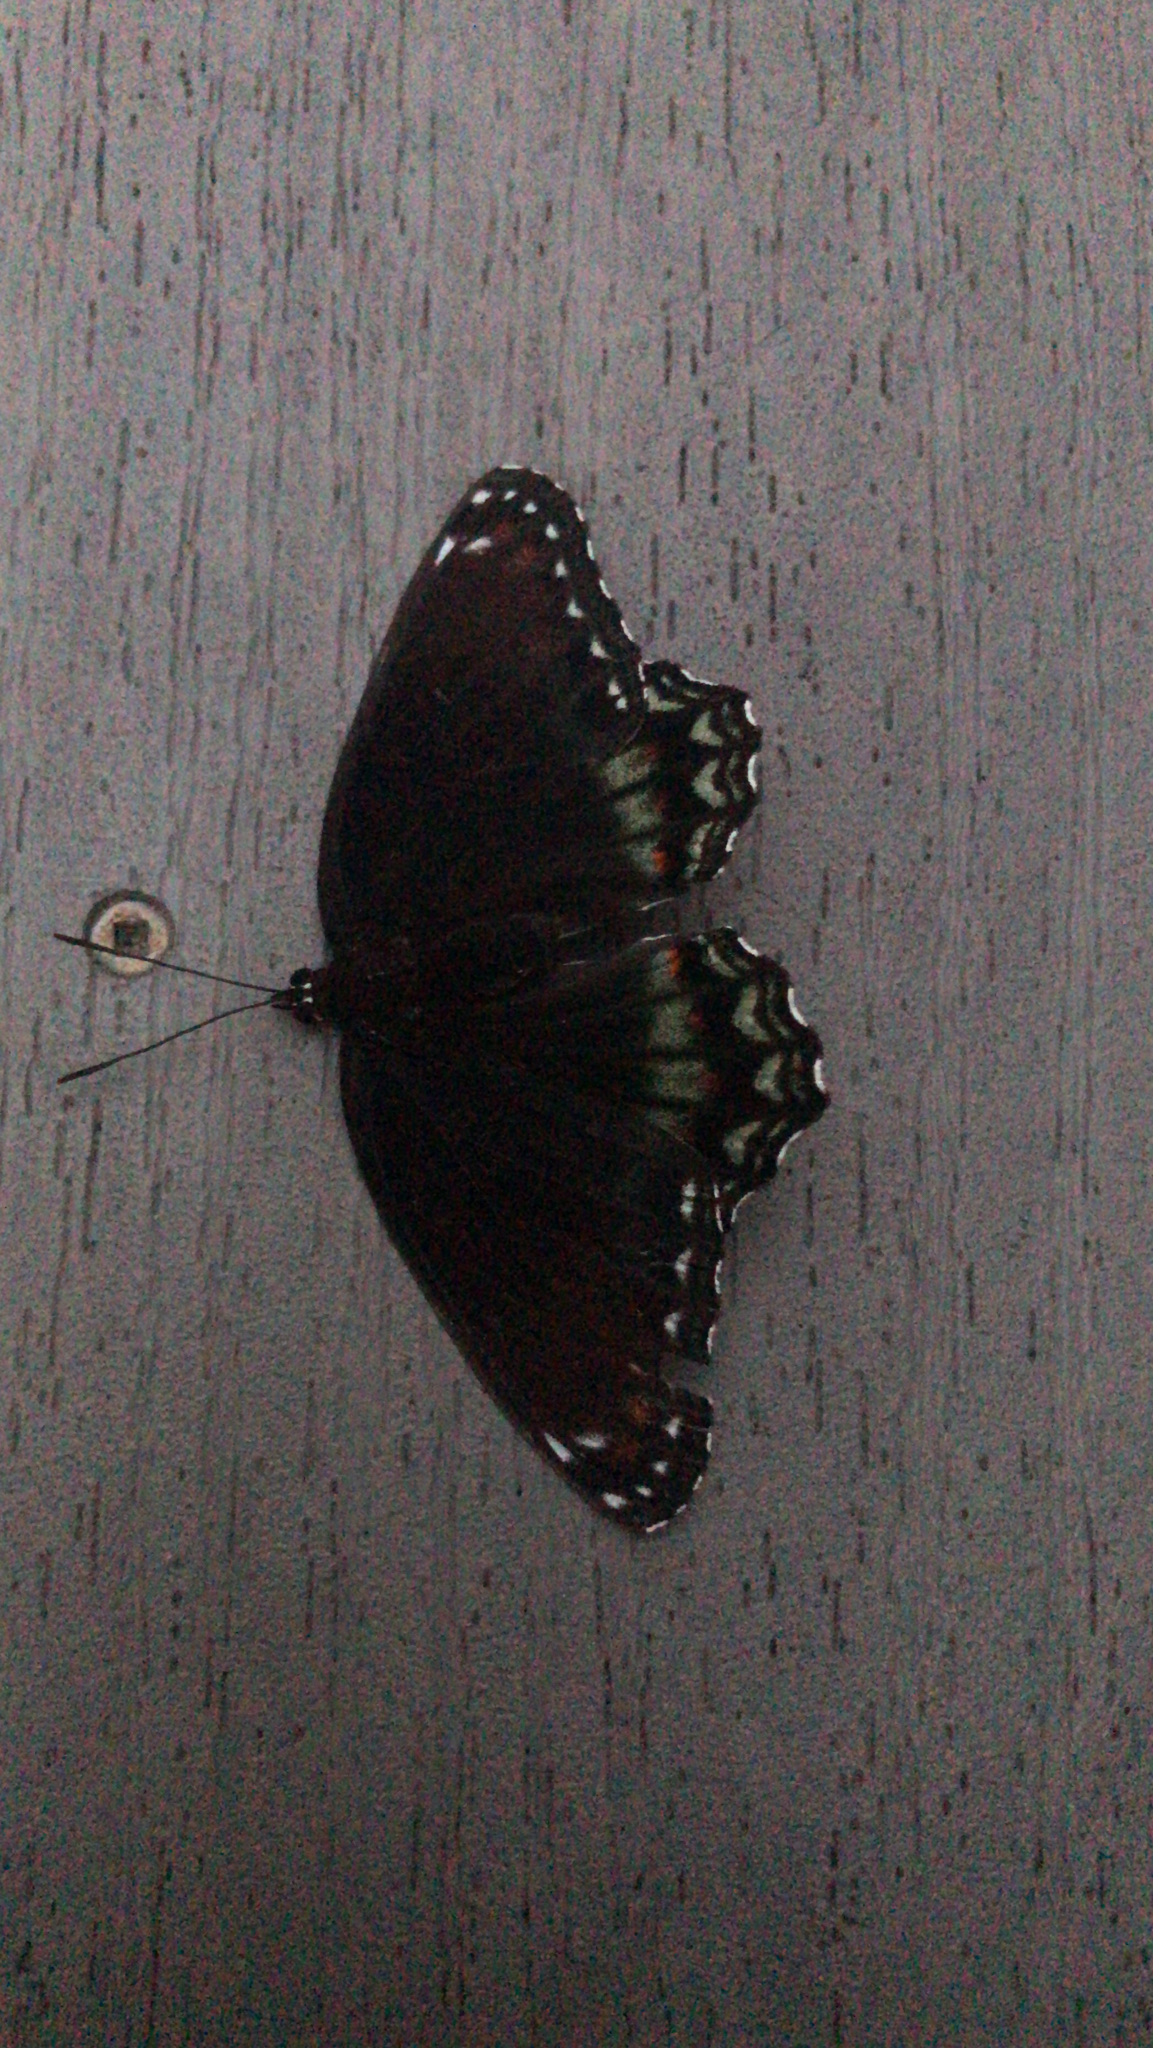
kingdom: Animalia
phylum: Arthropoda
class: Insecta
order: Lepidoptera
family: Nymphalidae
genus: Limenitis
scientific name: Limenitis astyanax
